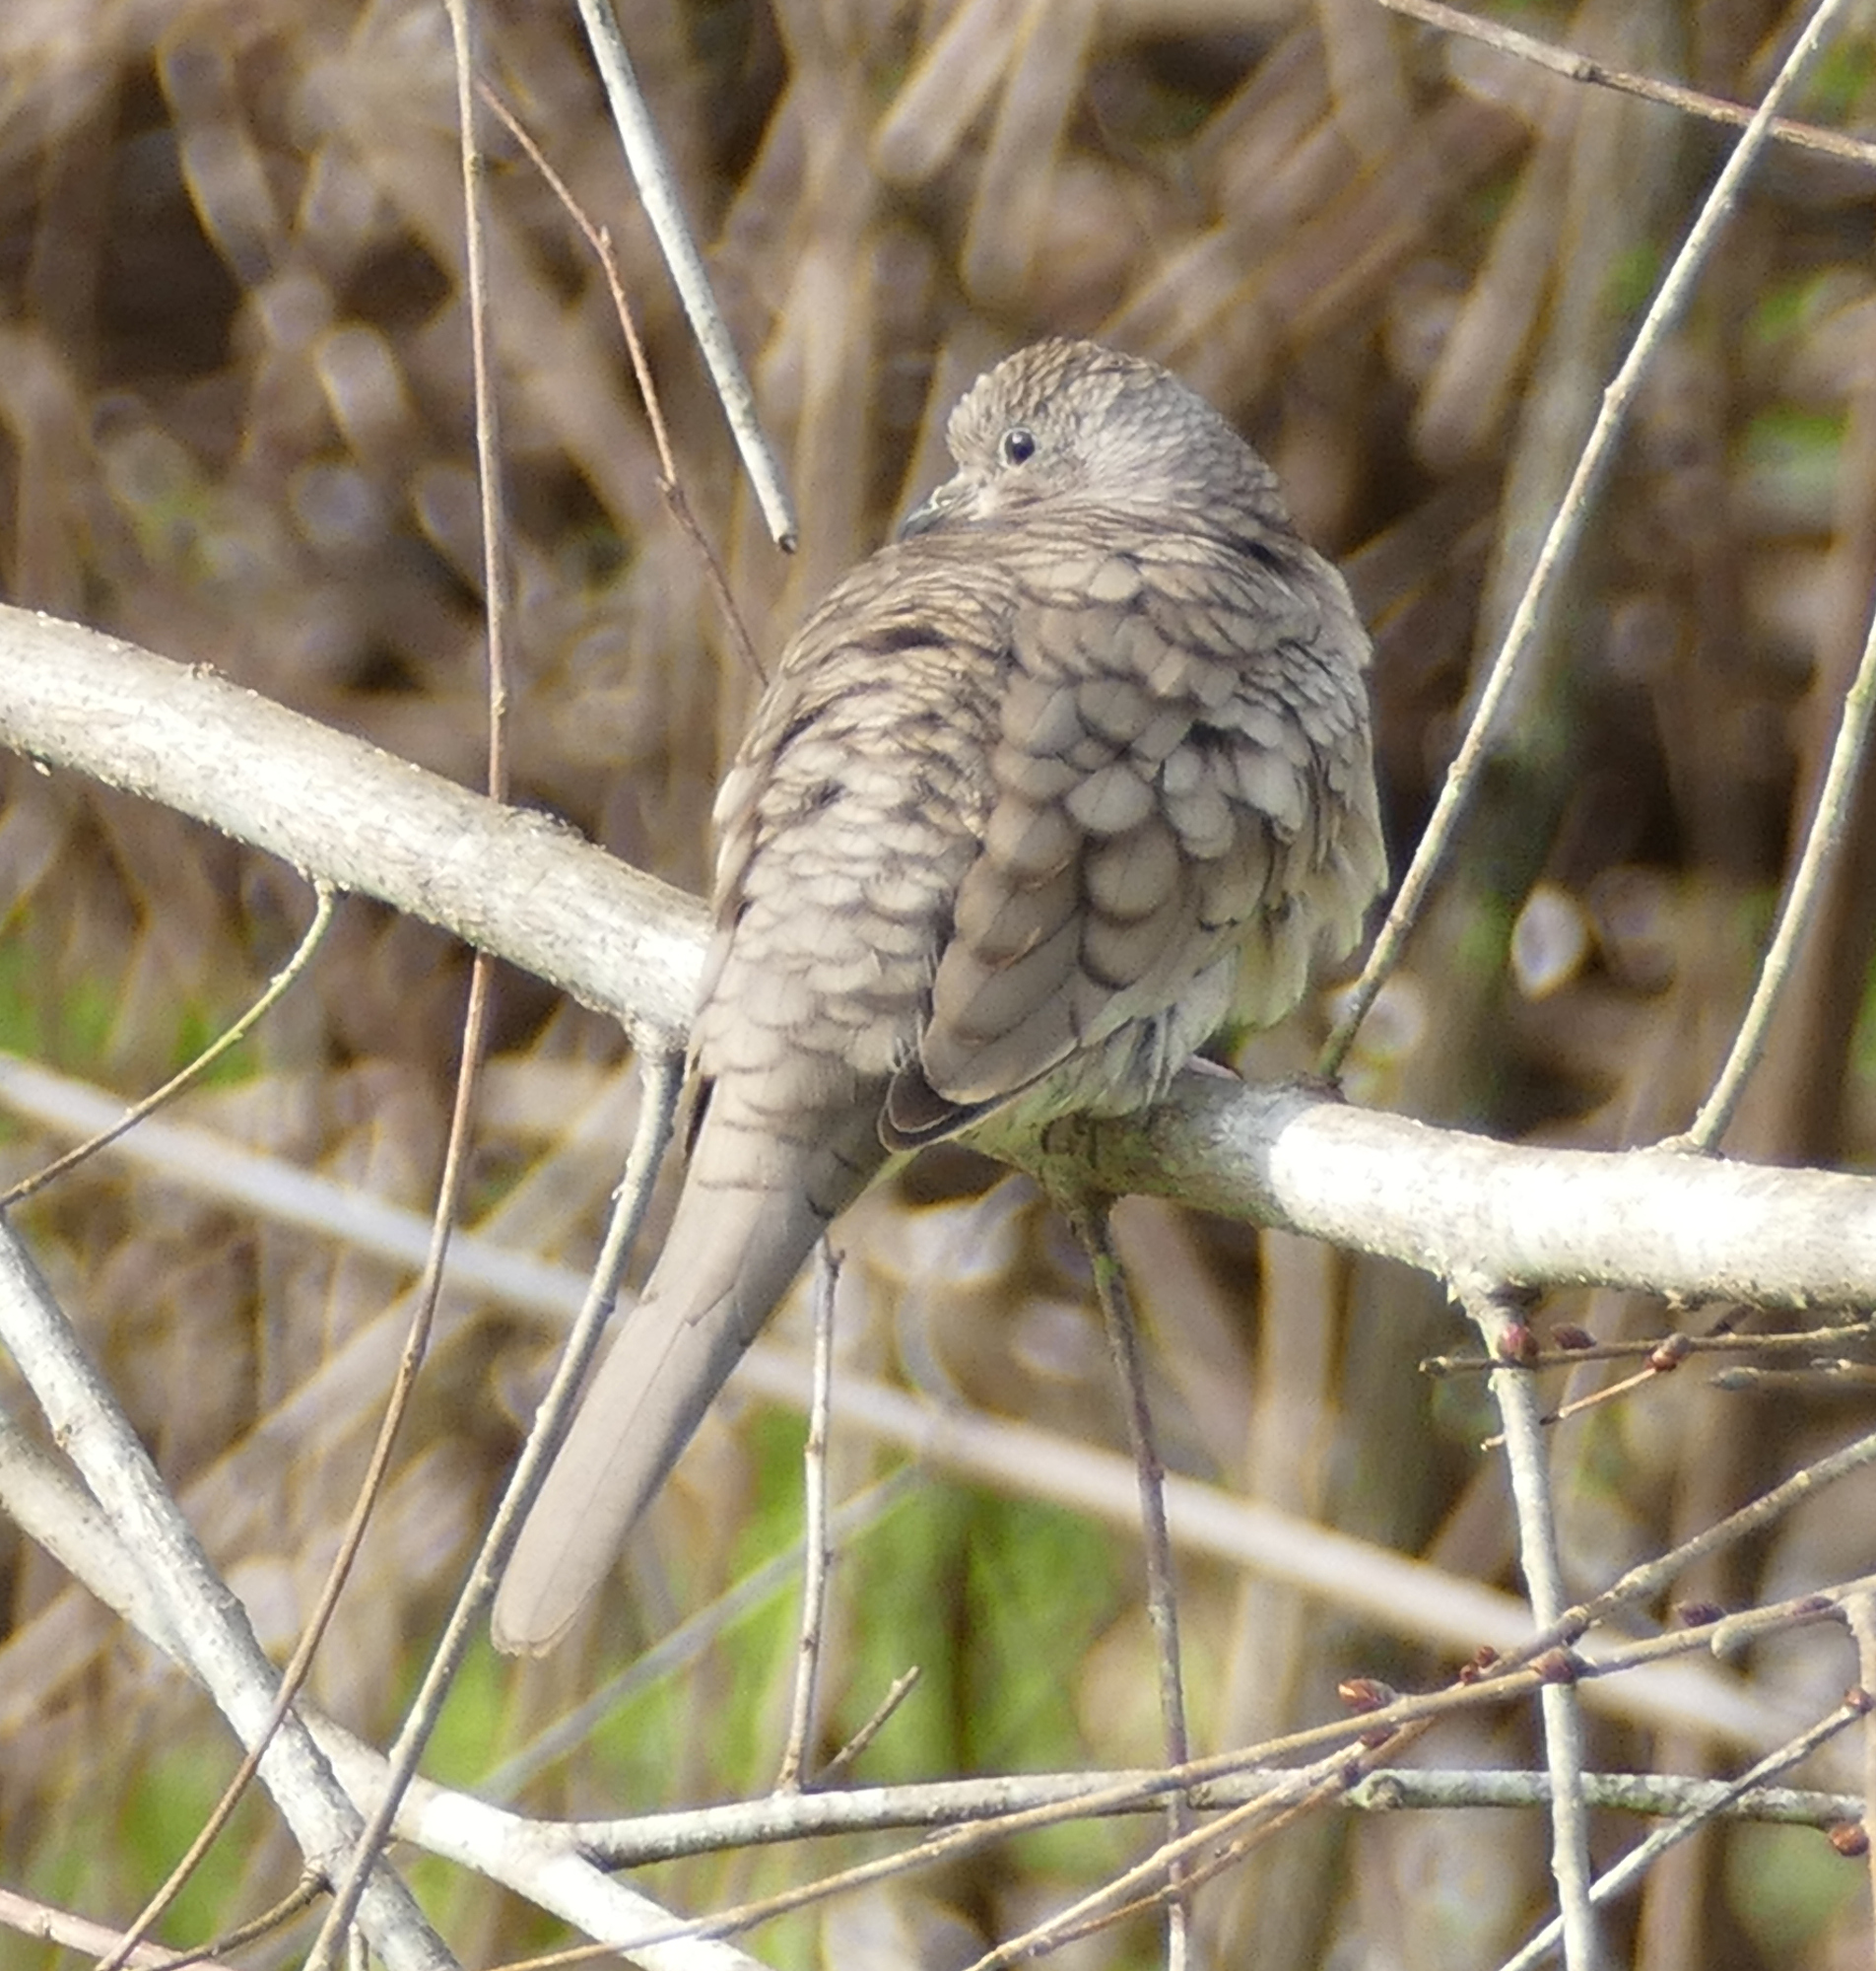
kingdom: Animalia
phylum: Chordata
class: Aves
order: Columbiformes
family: Columbidae
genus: Columbina
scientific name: Columbina inca
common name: Inca dove
